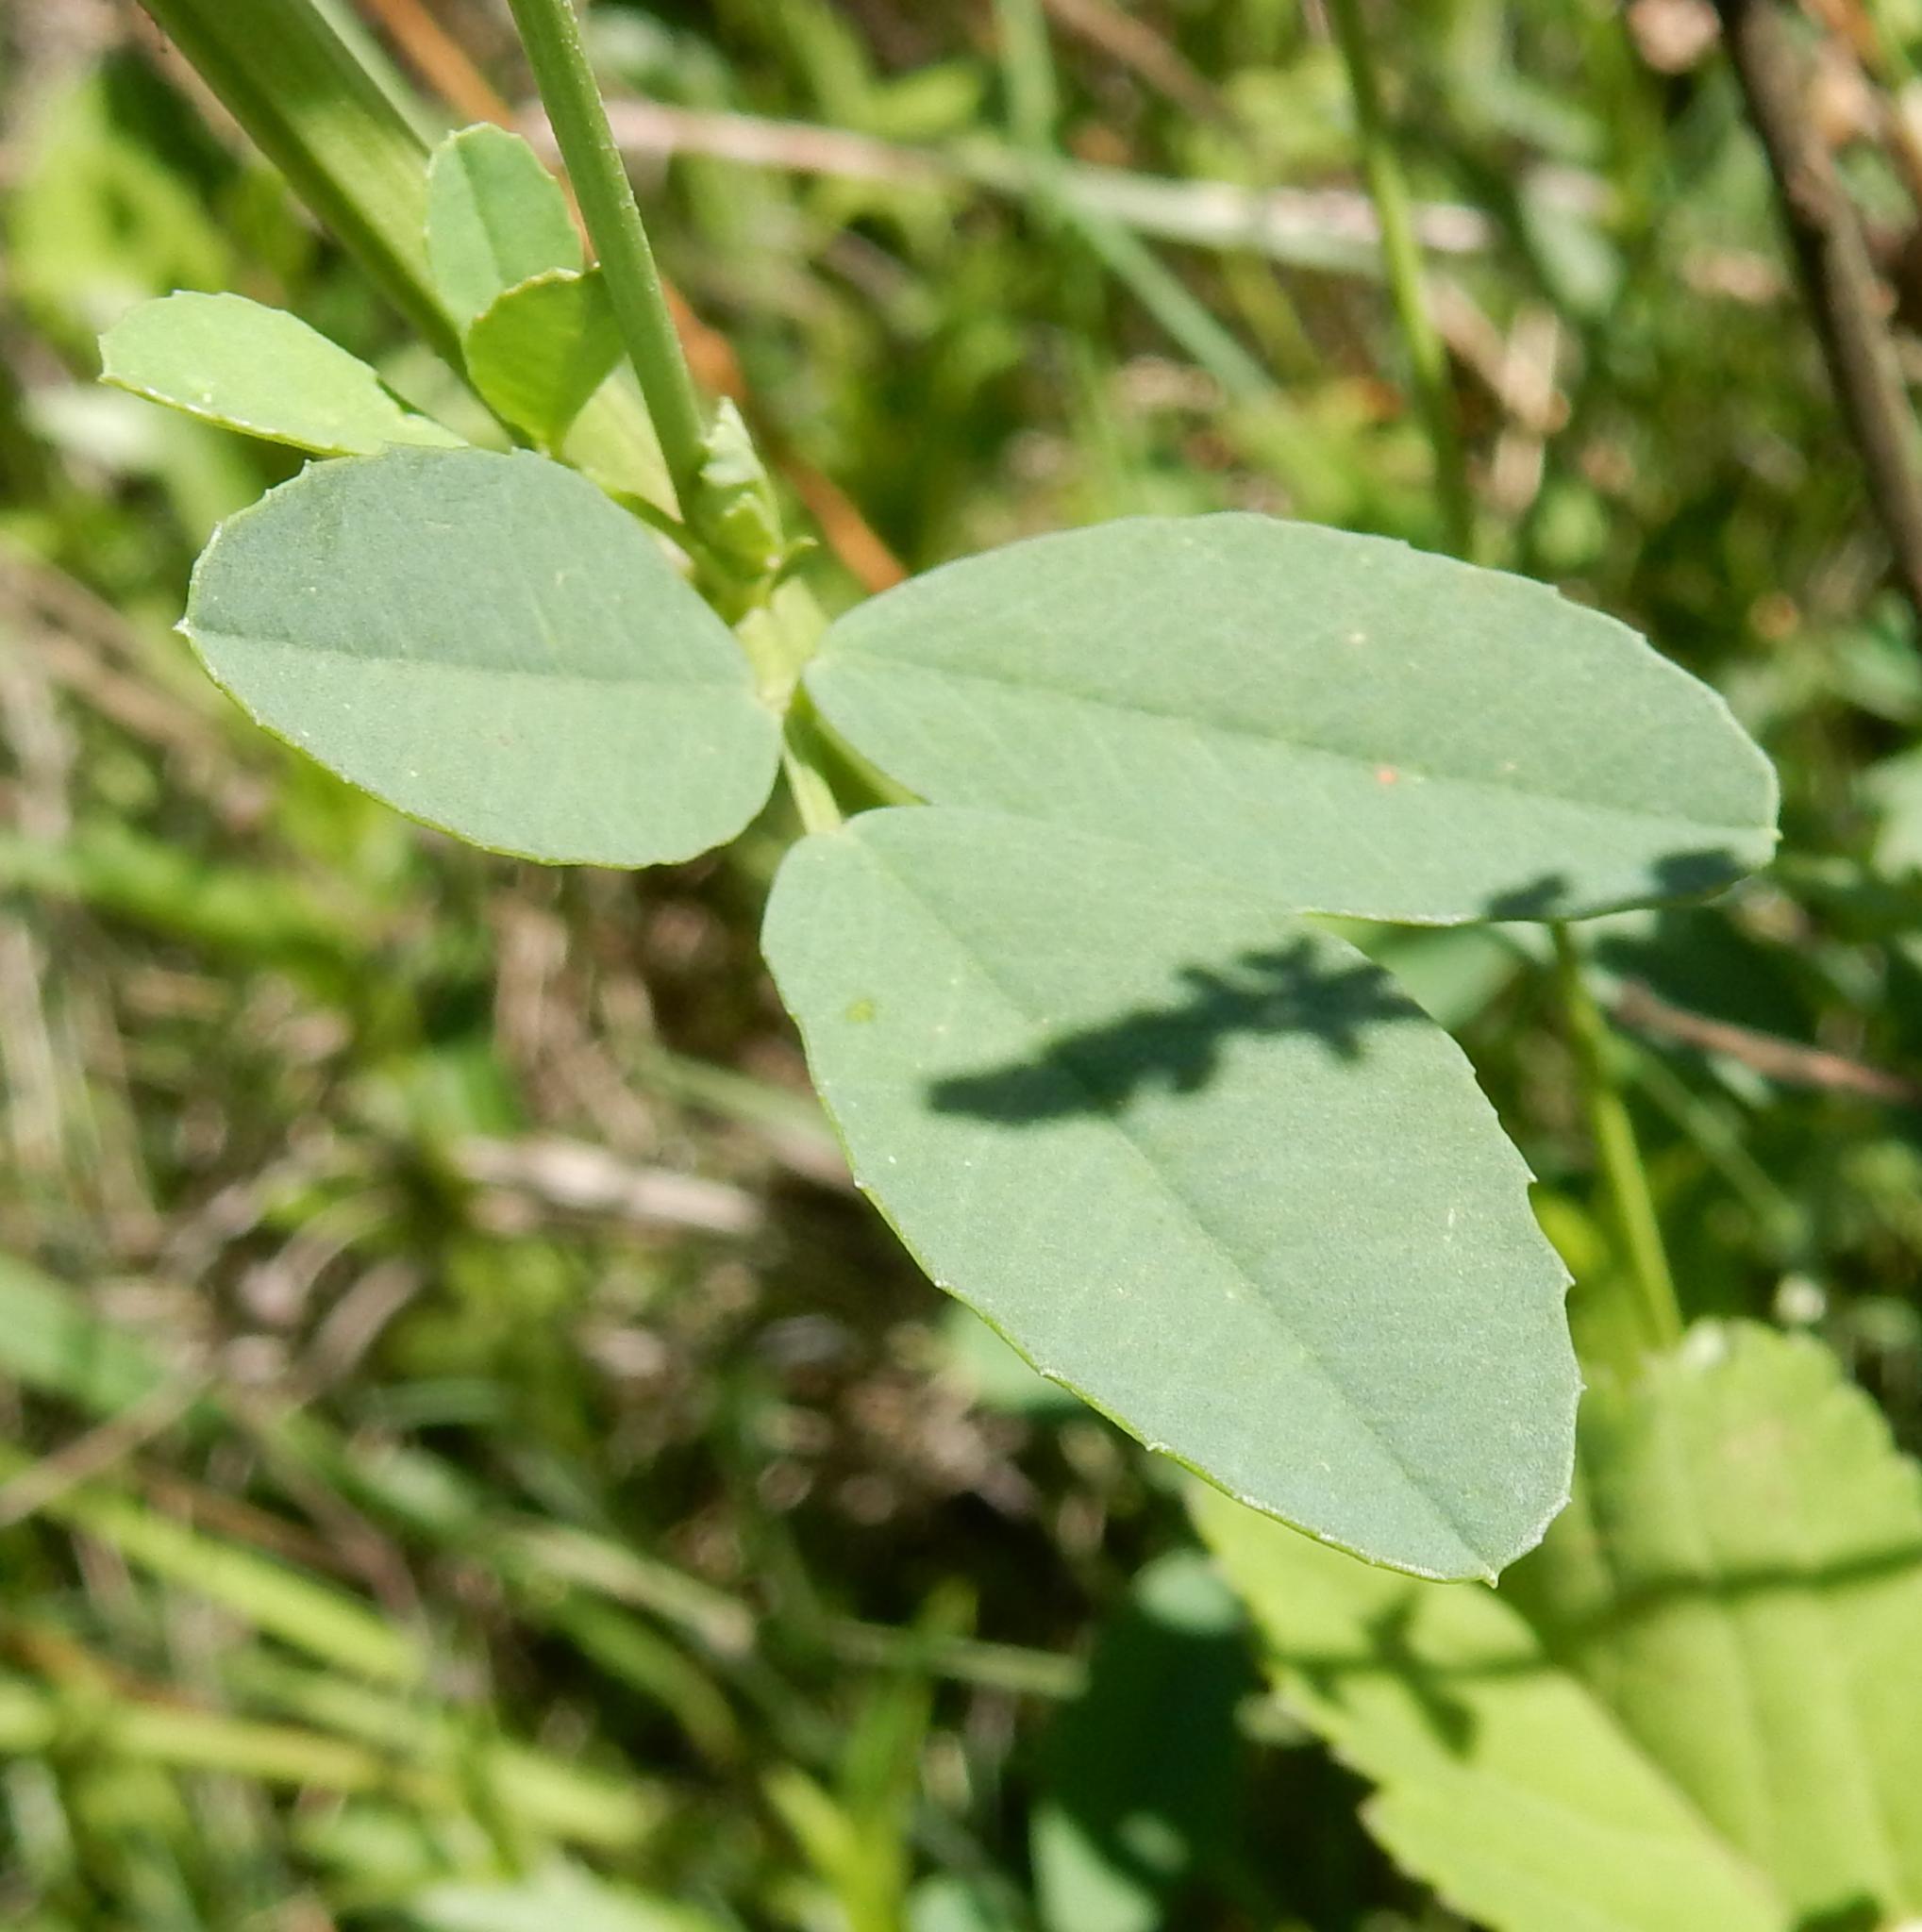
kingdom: Plantae
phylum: Tracheophyta
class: Magnoliopsida
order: Fabales
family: Fabaceae
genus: Melilotus
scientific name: Melilotus albus
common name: White melilot
